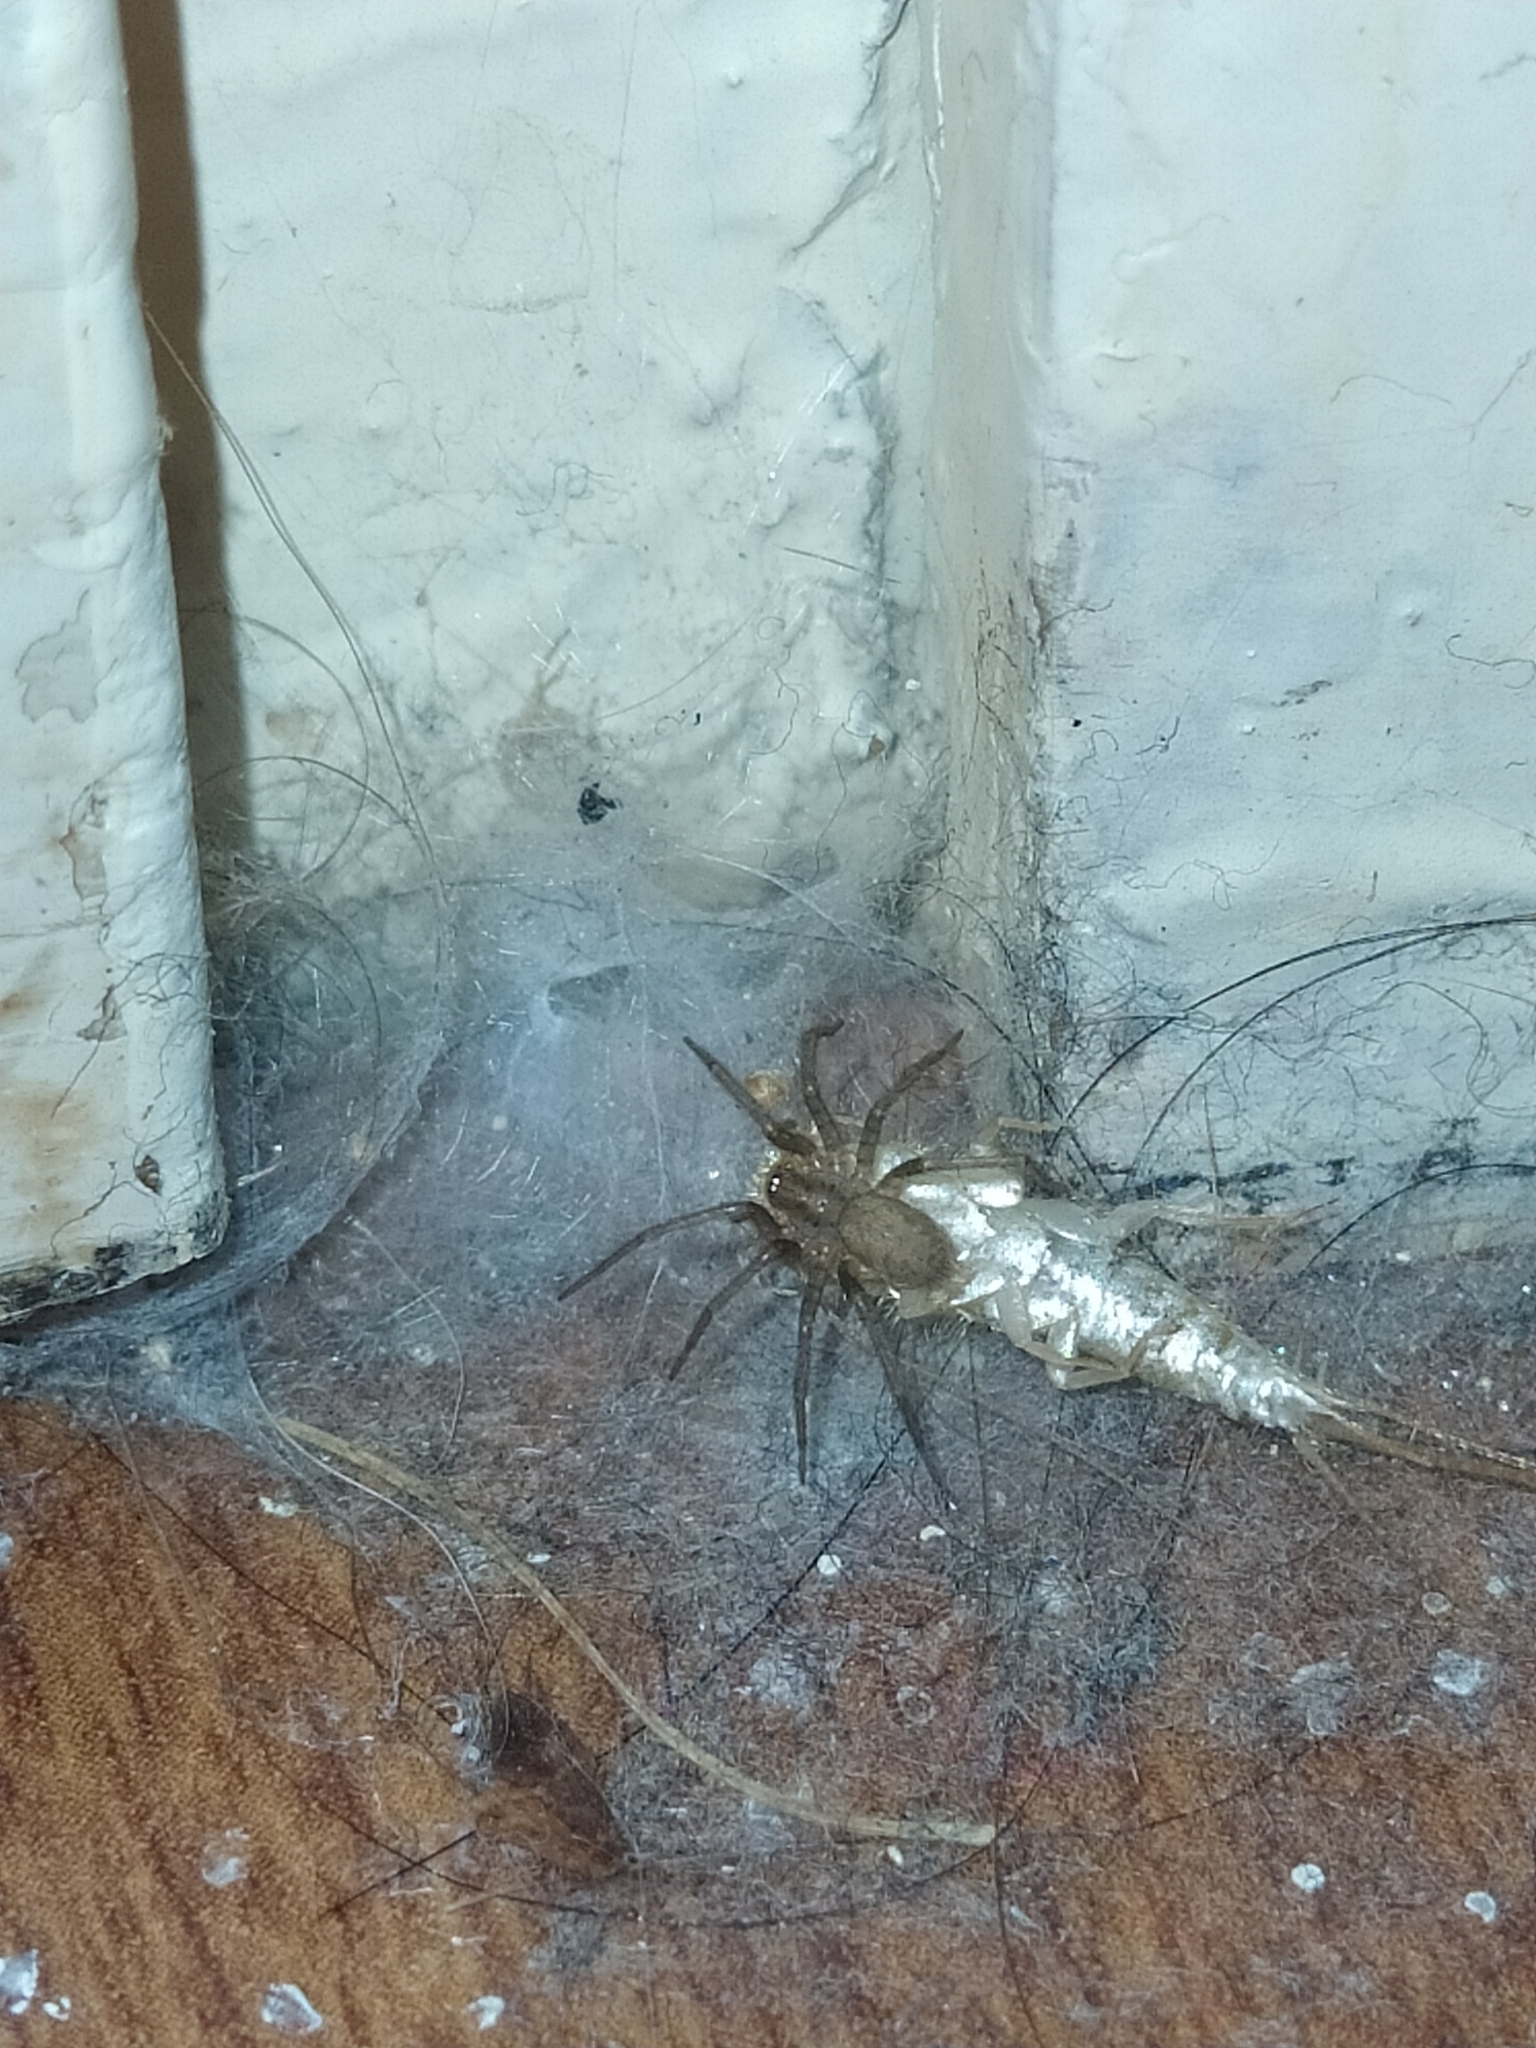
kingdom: Animalia
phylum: Arthropoda
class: Arachnida
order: Araneae
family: Agelenidae
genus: Tegenaria
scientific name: Tegenaria domestica
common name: Barn funnel weaver
